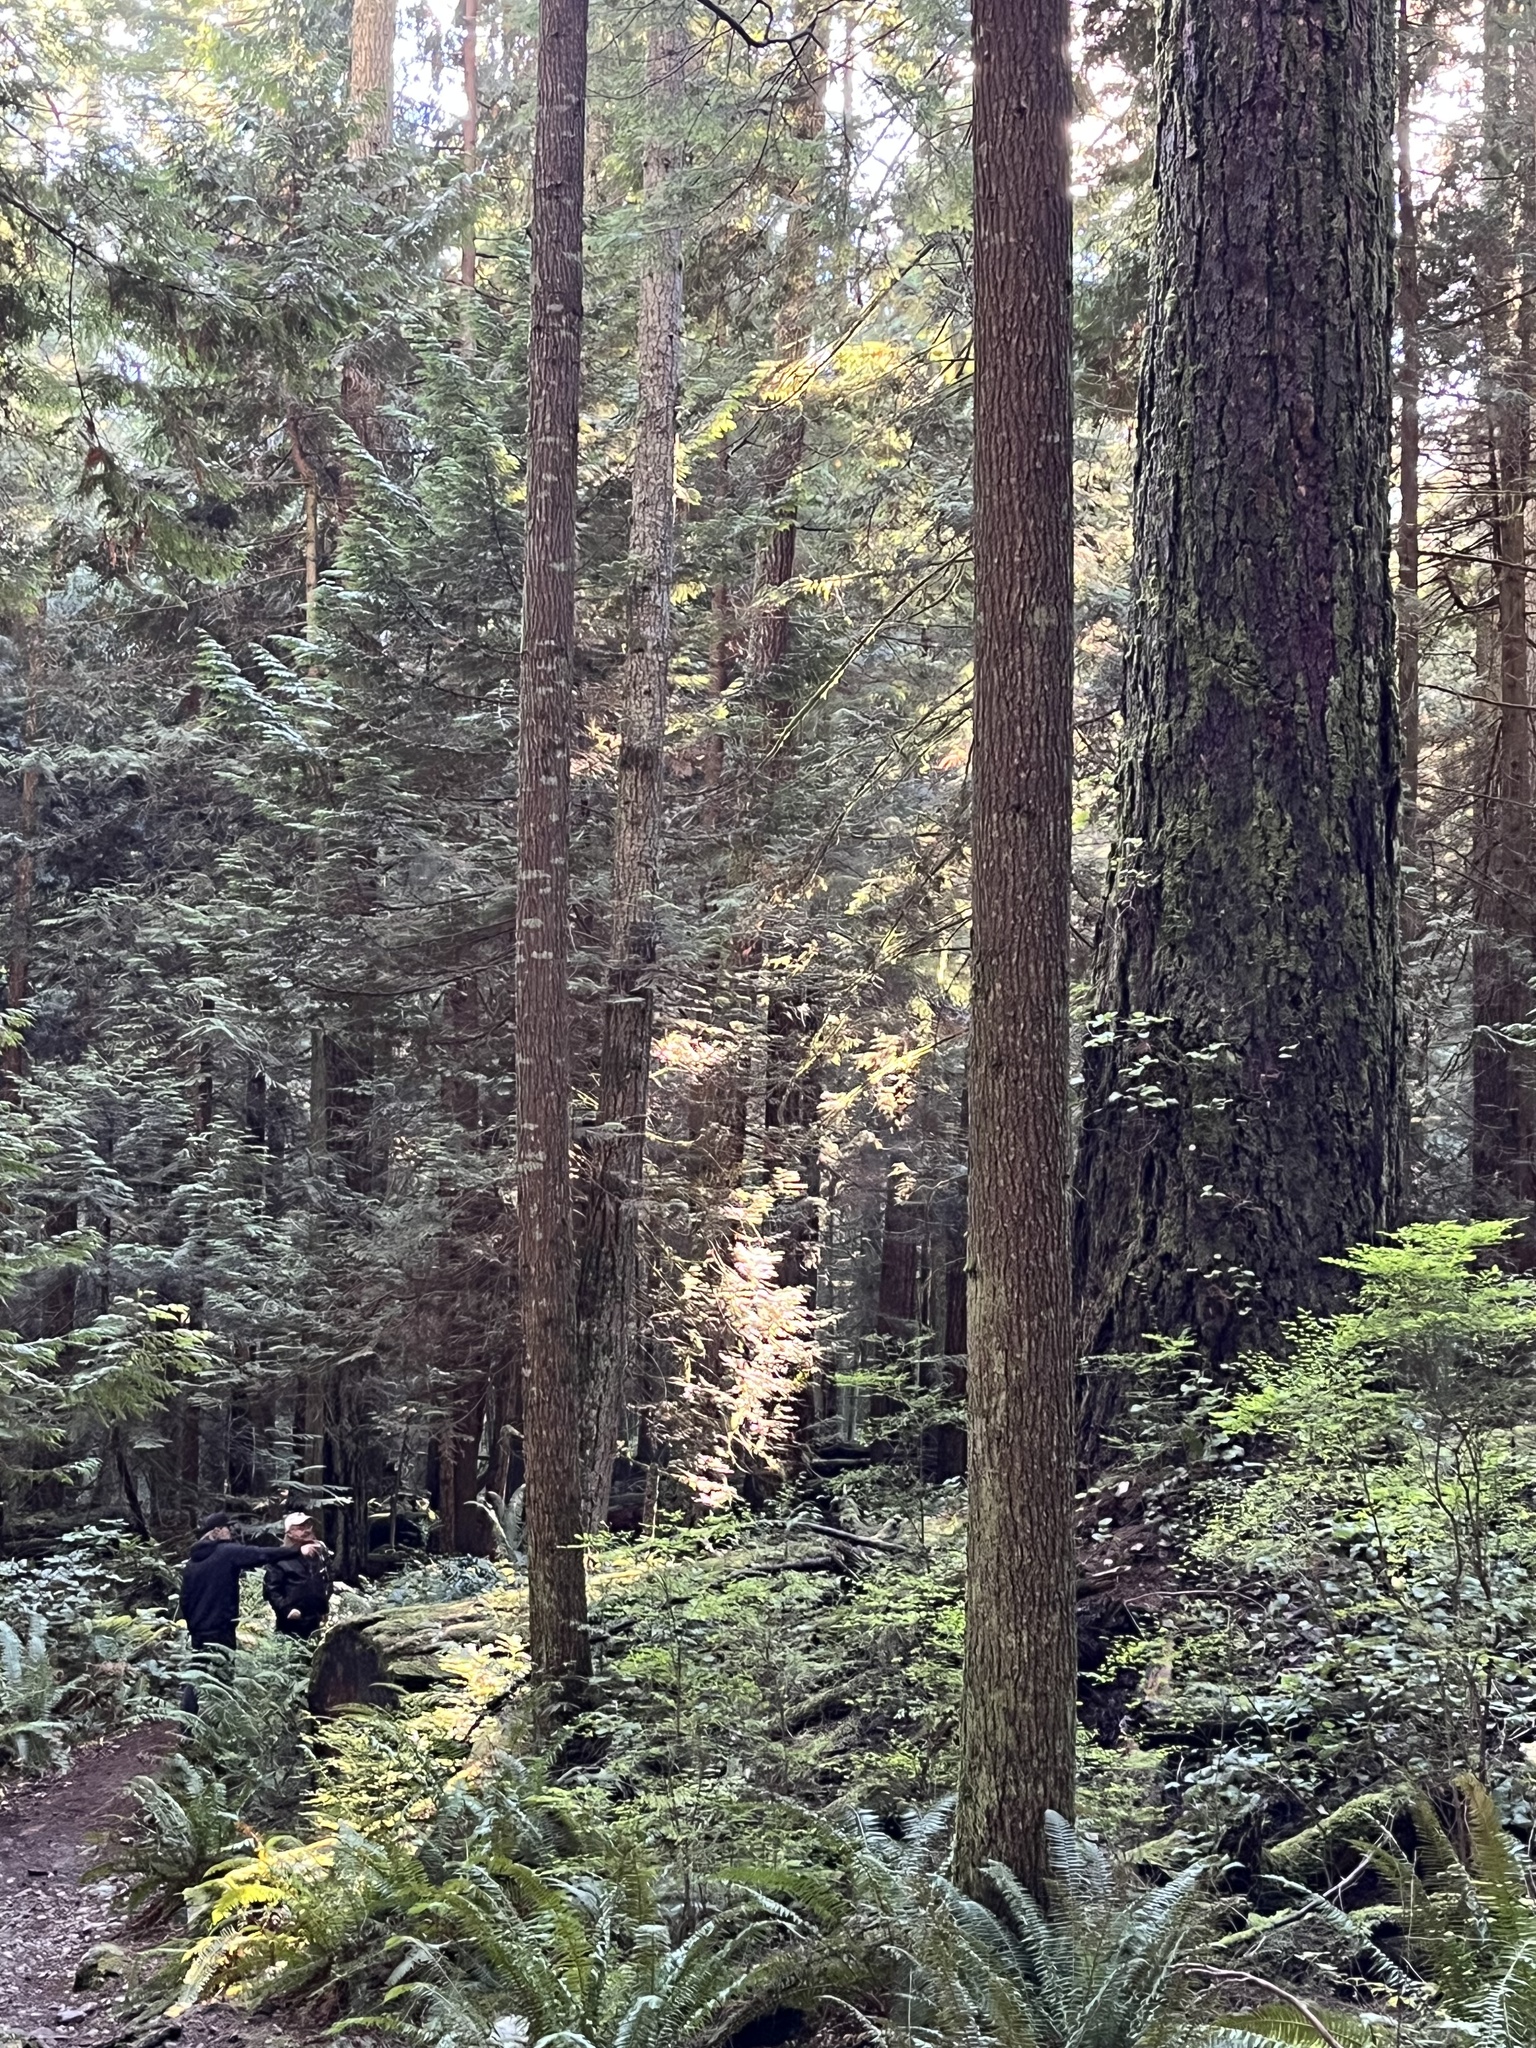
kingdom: Plantae
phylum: Tracheophyta
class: Pinopsida
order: Pinales
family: Pinaceae
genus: Pseudotsuga
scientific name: Pseudotsuga menziesii
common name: Douglas fir
